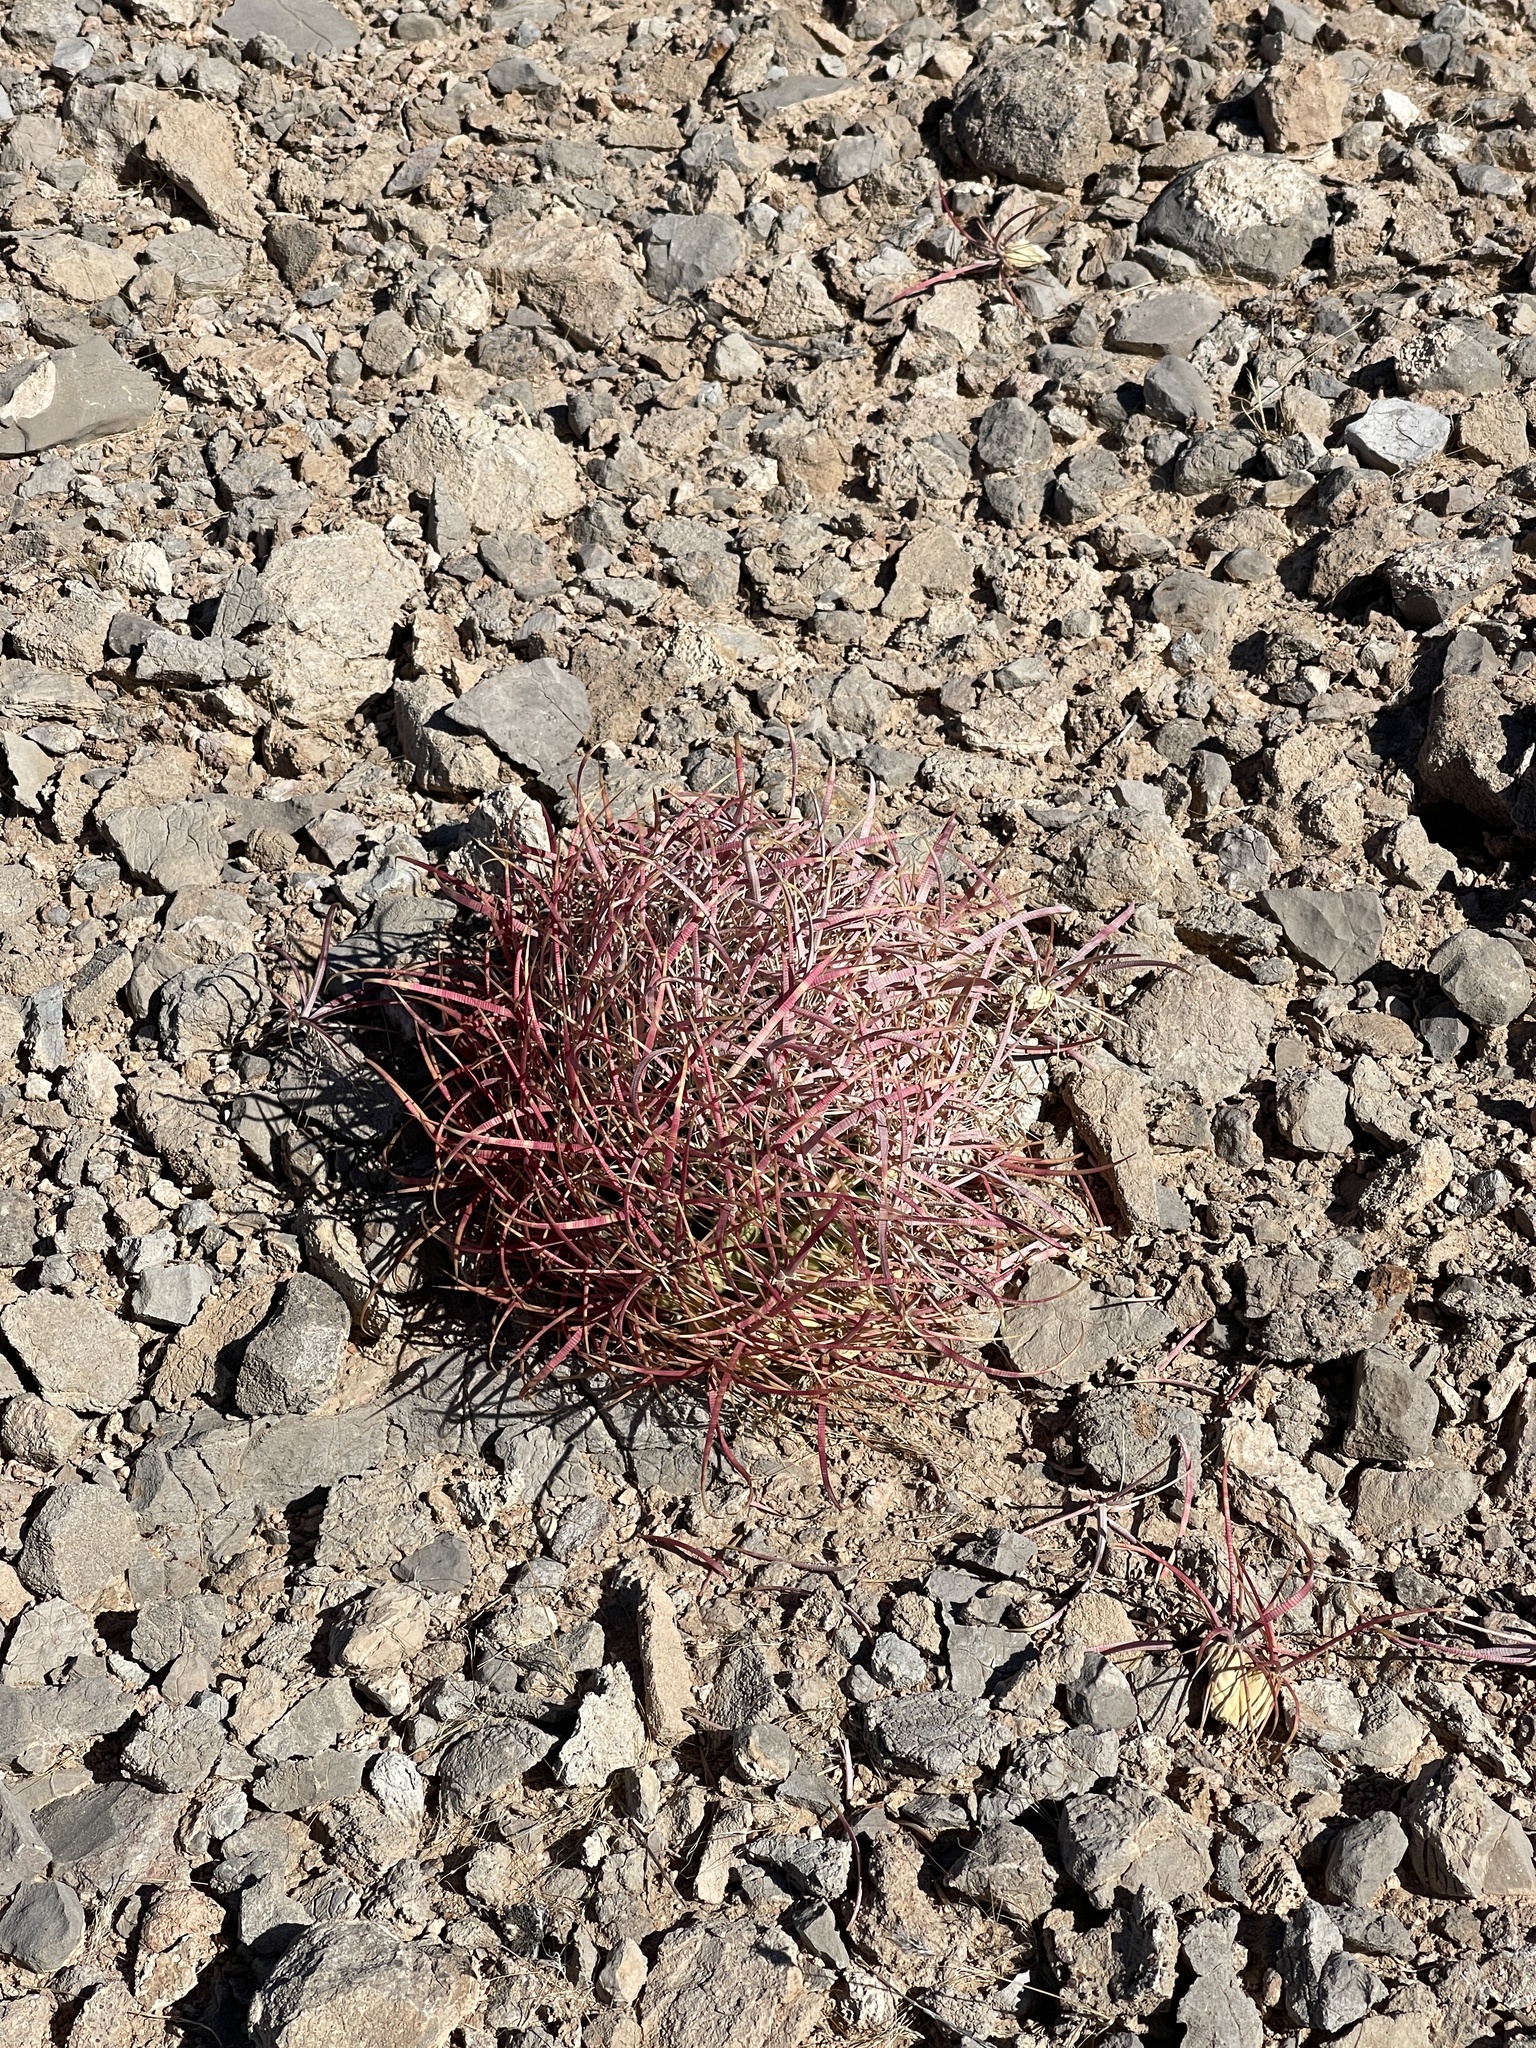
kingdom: Plantae
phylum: Tracheophyta
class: Magnoliopsida
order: Caryophyllales
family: Cactaceae
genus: Ferocactus
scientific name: Ferocactus cylindraceus
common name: California barrel cactus
